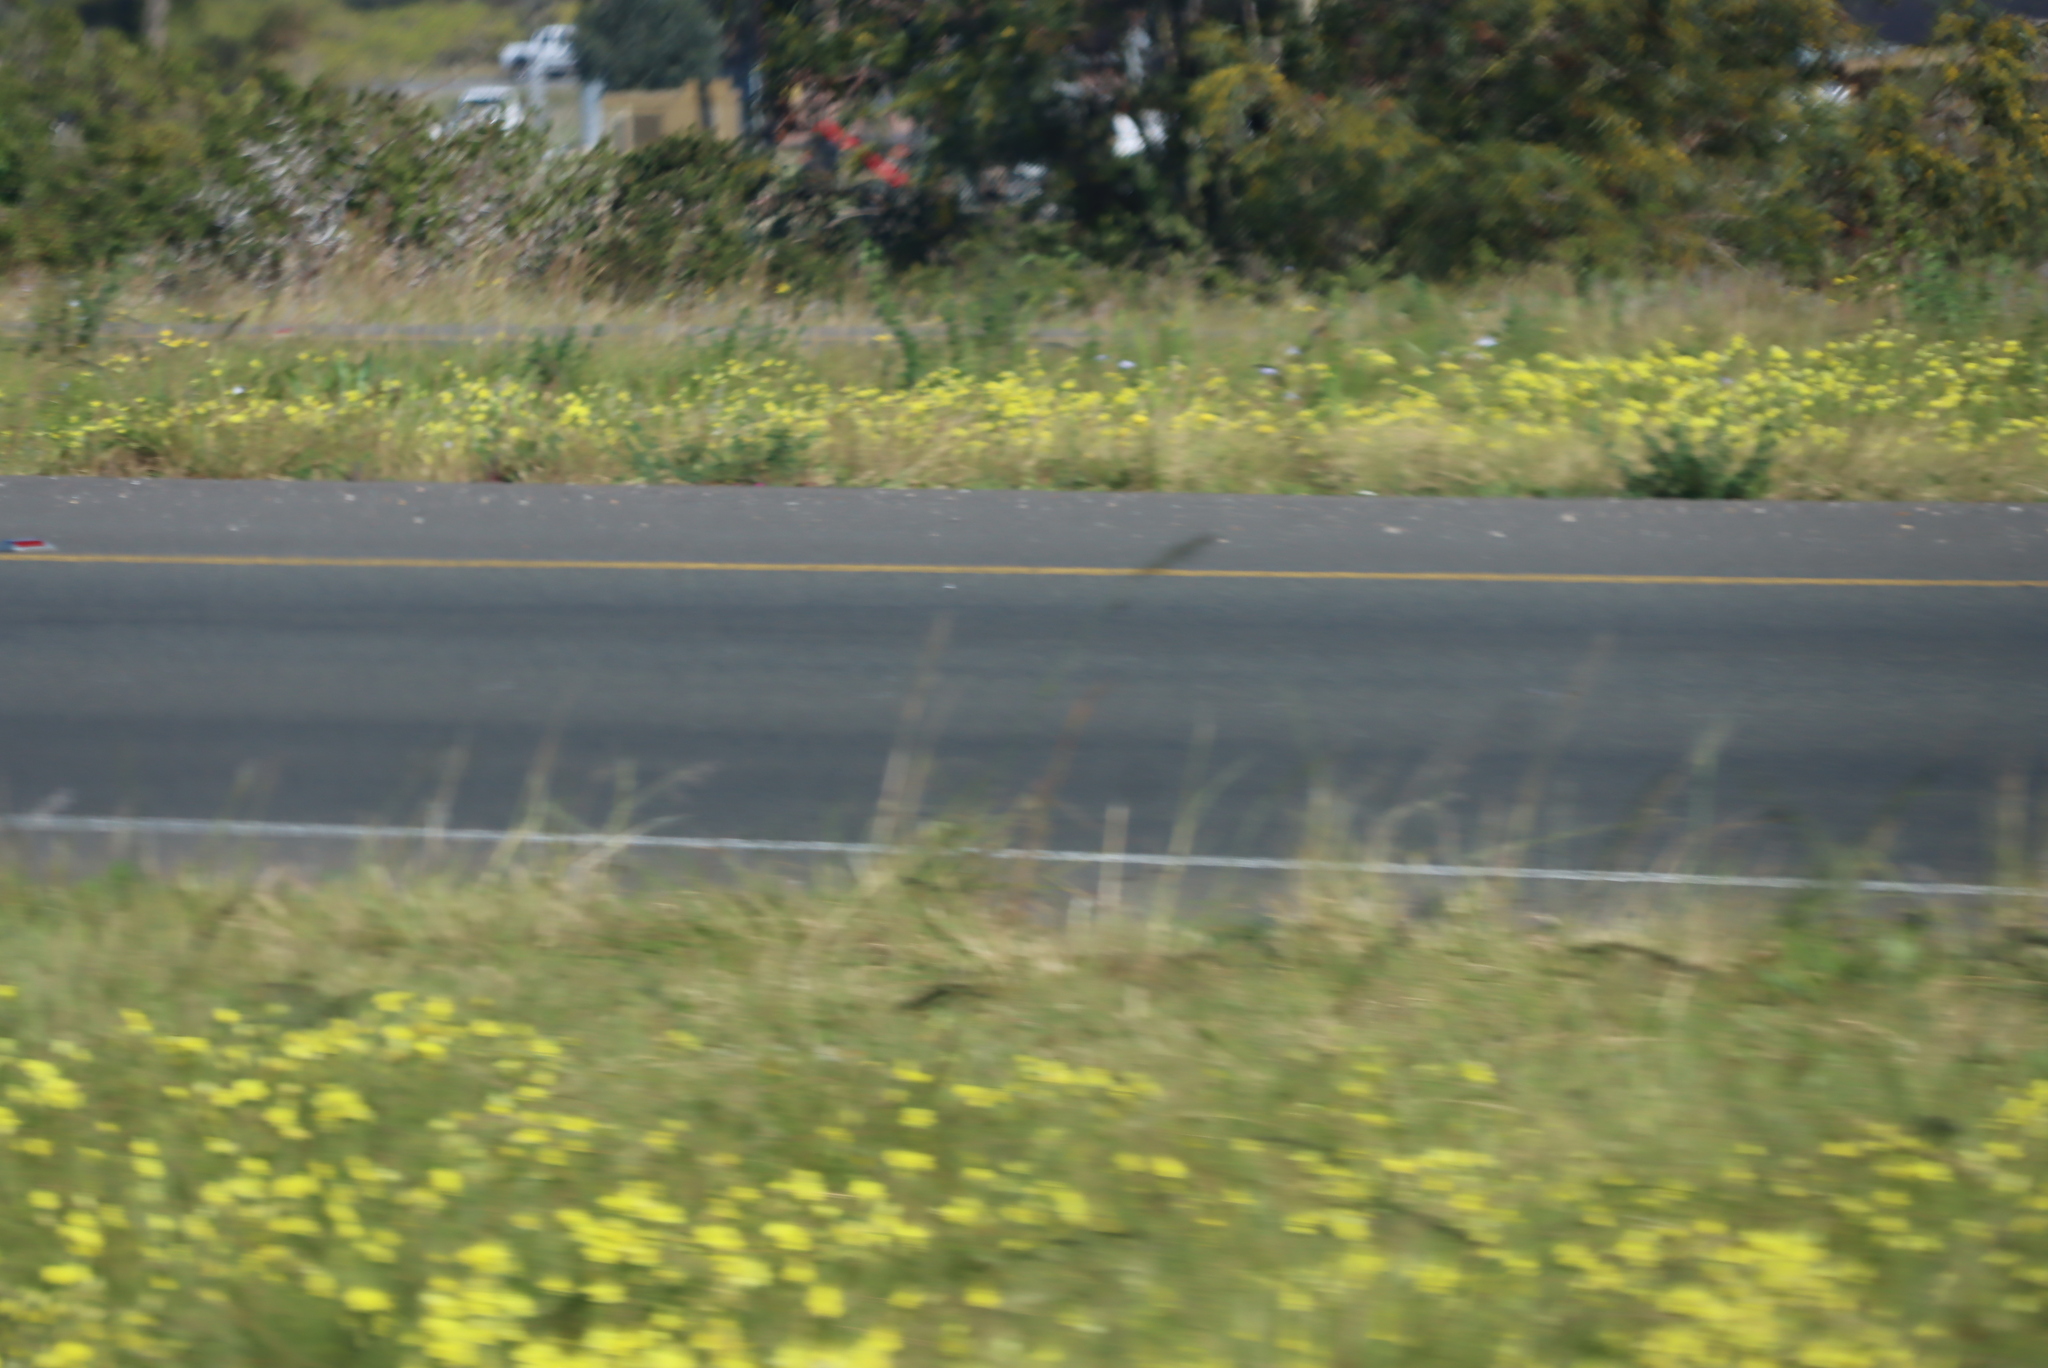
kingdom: Plantae
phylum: Tracheophyta
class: Magnoliopsida
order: Oxalidales
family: Oxalidaceae
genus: Oxalis
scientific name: Oxalis pes-caprae
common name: Bermuda-buttercup
